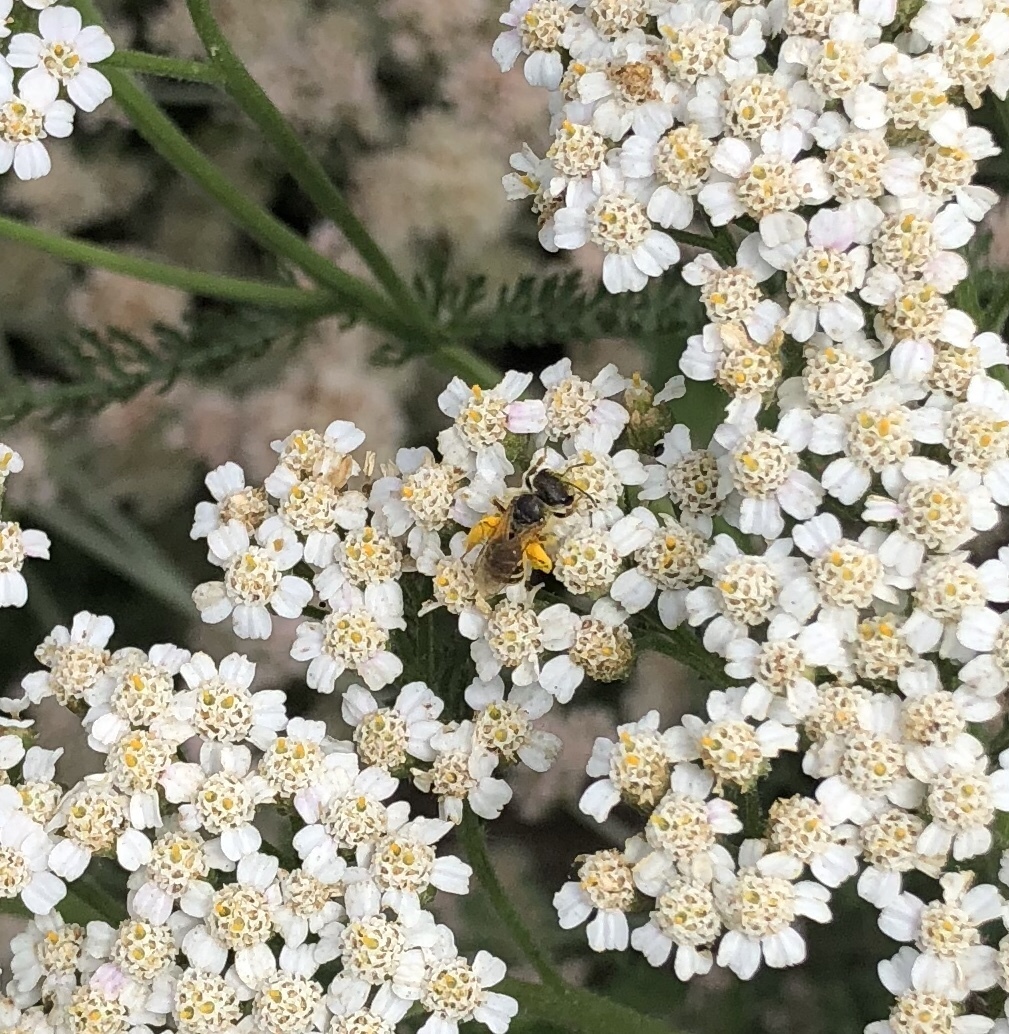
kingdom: Animalia
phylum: Arthropoda
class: Insecta
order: Hymenoptera
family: Halictidae
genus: Halictus
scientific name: Halictus ligatus
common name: Ligated furrow bee
